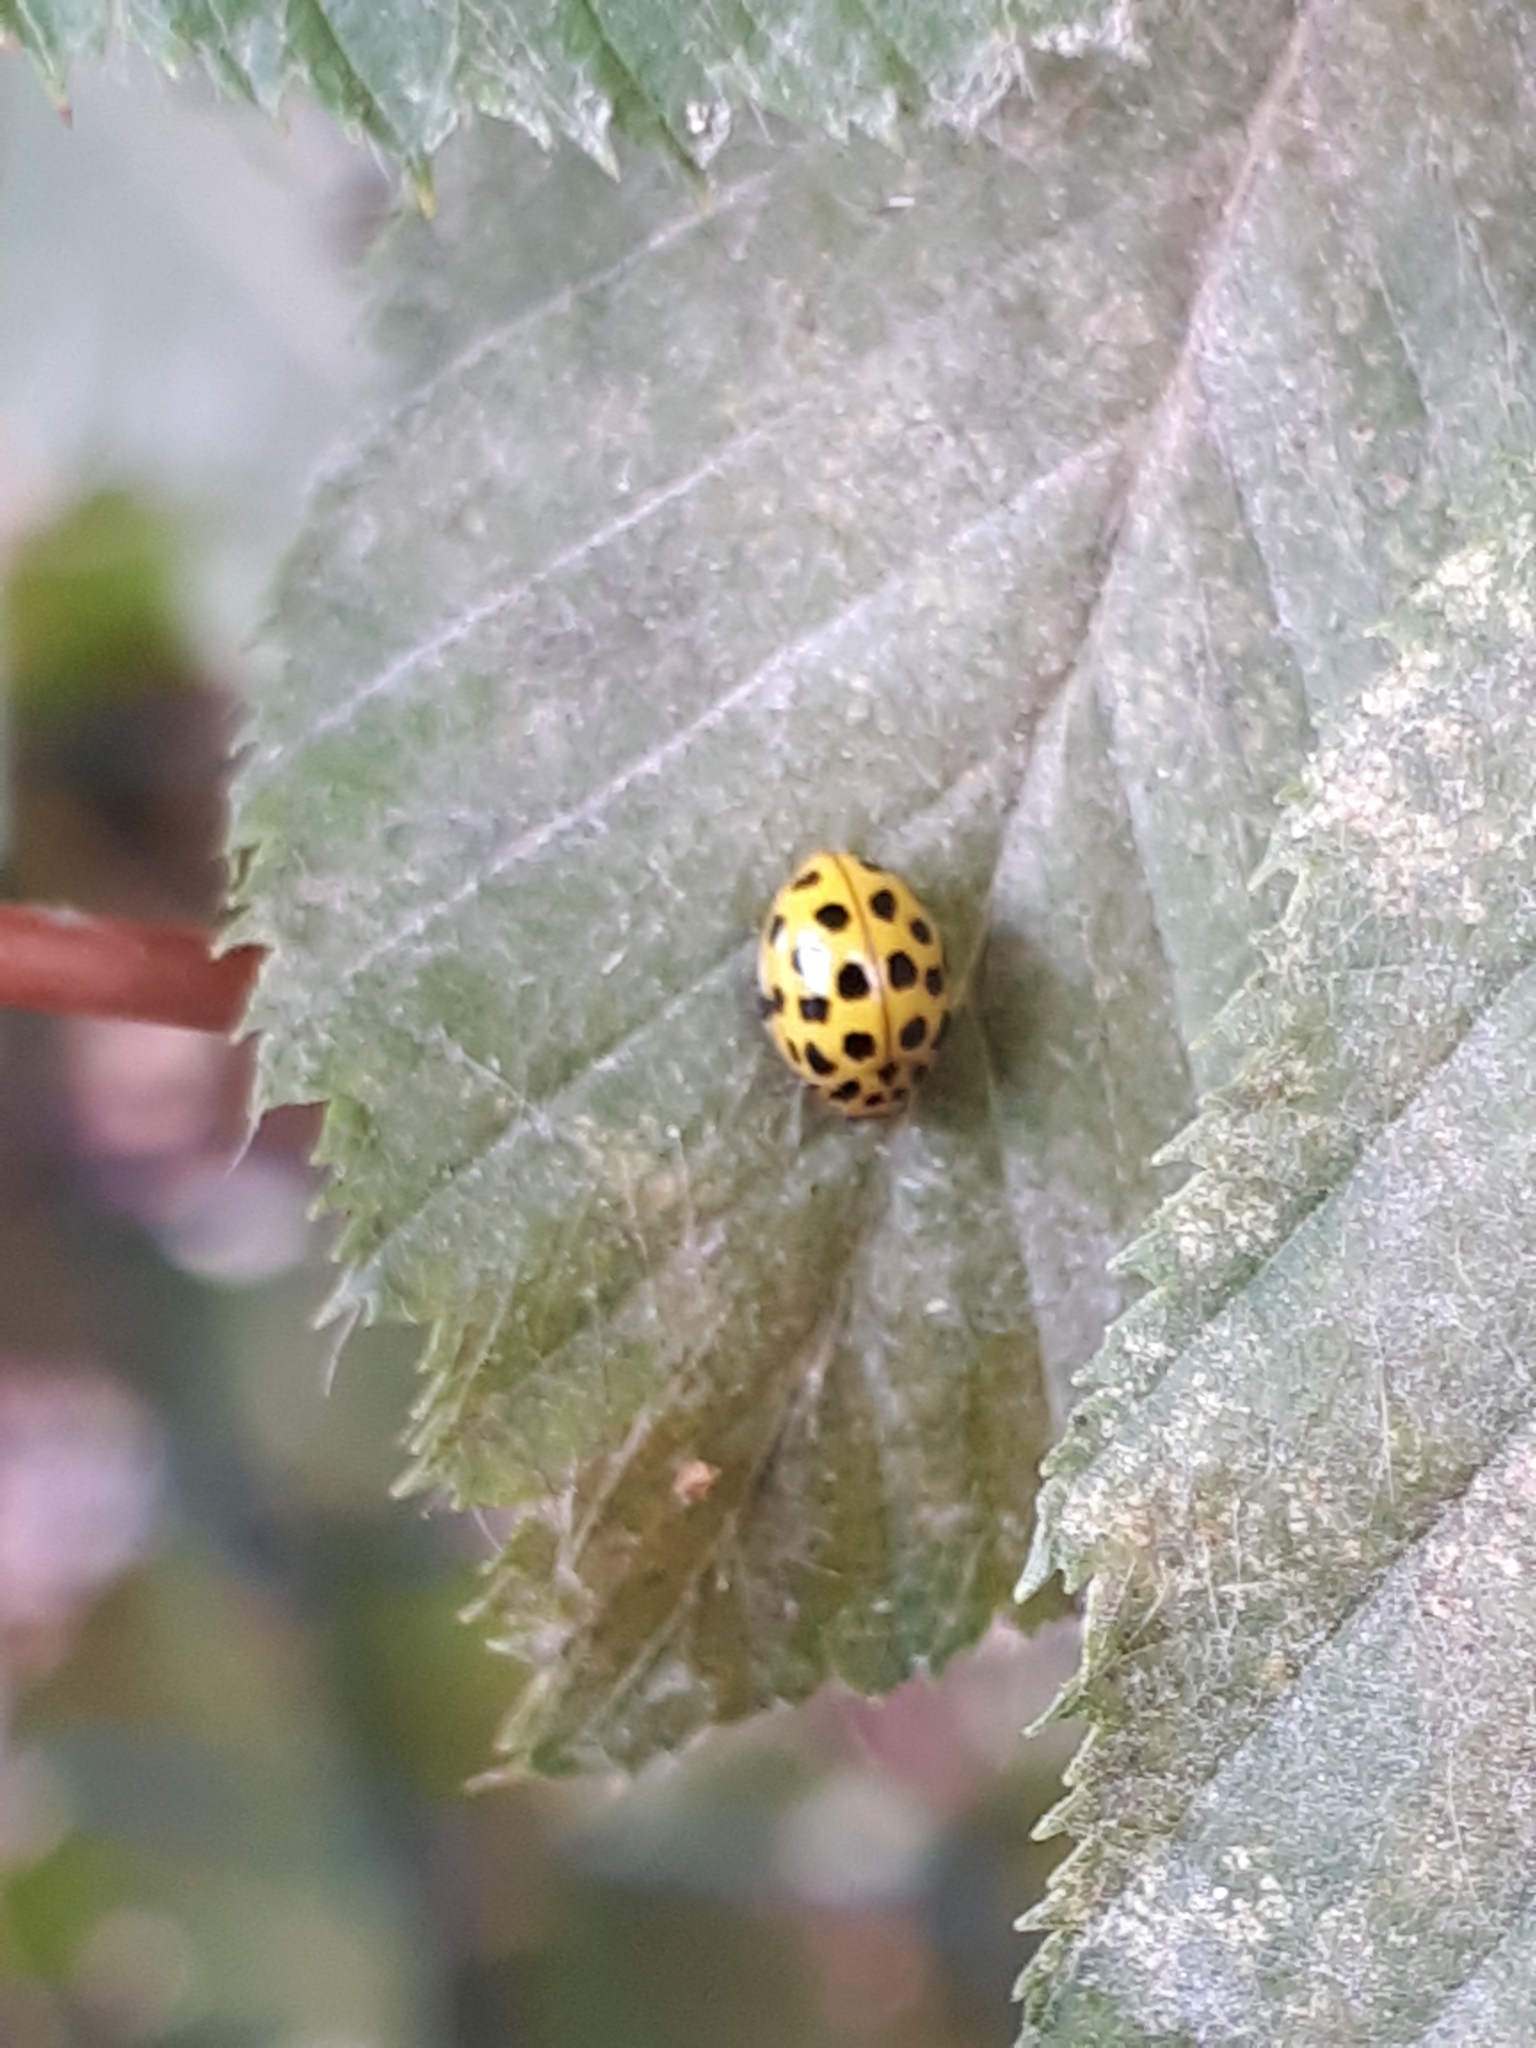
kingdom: Animalia
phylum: Arthropoda
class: Insecta
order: Coleoptera
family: Coccinellidae
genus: Psyllobora
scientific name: Psyllobora vigintiduopunctata
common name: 22-spot ladybird
